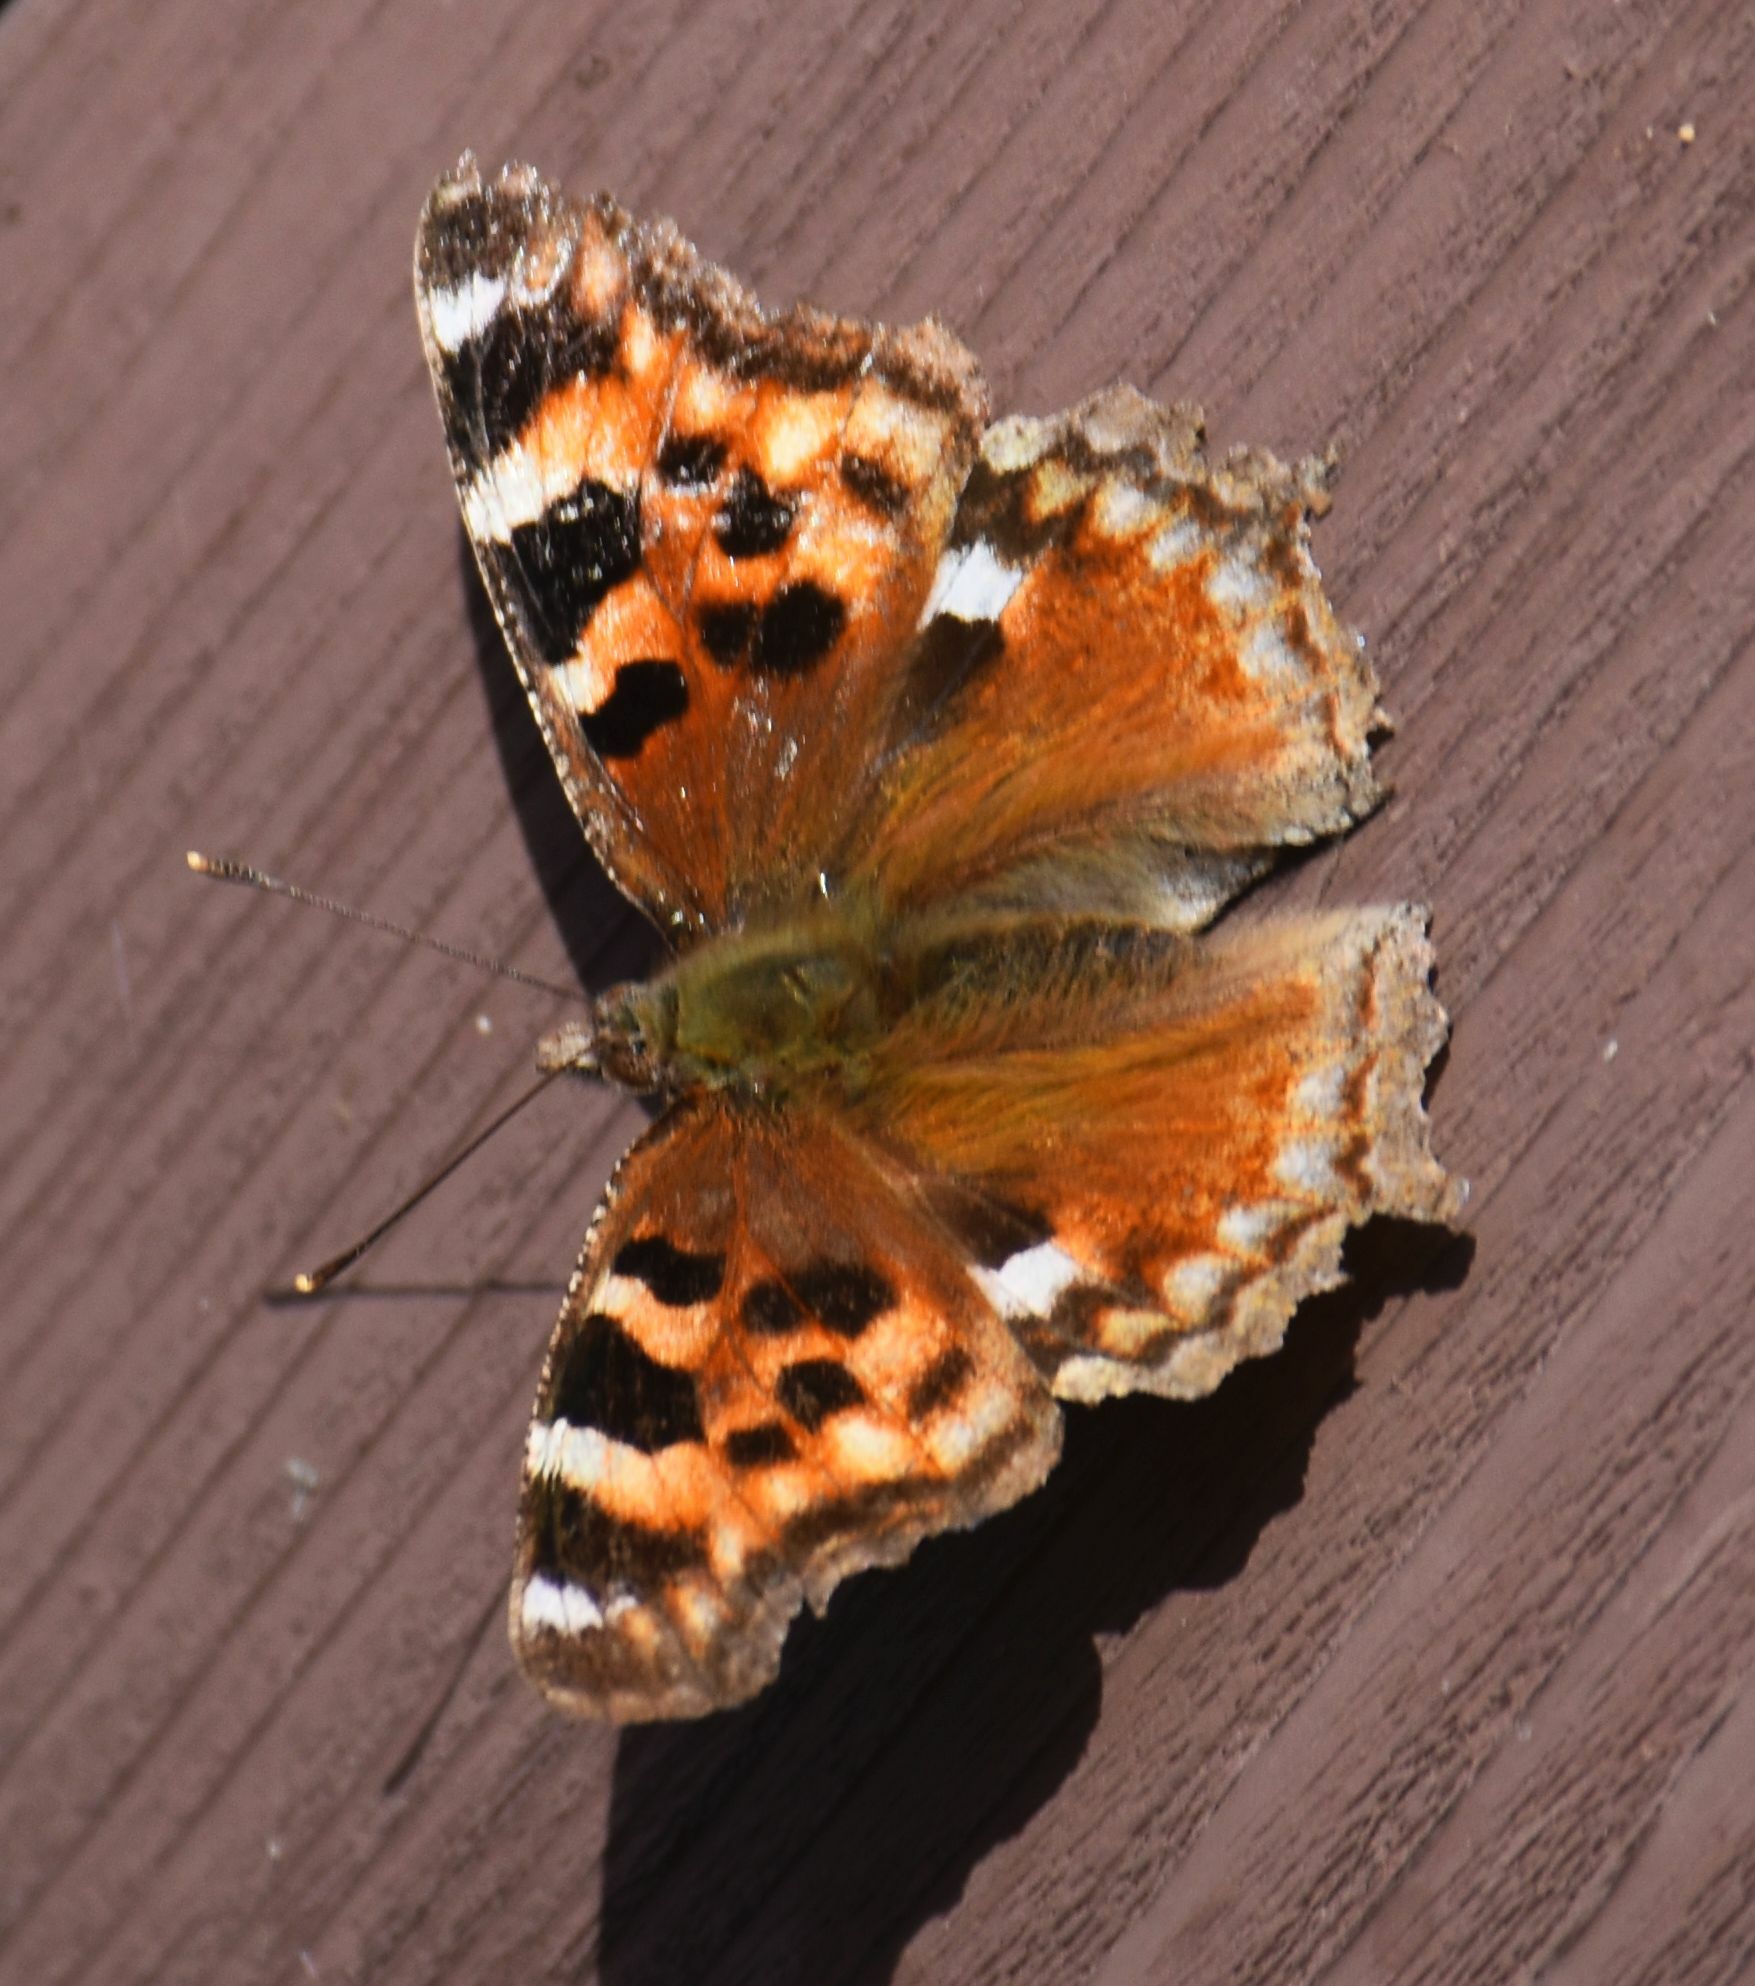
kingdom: Animalia
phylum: Arthropoda
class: Insecta
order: Lepidoptera
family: Nymphalidae
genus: Polygonia
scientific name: Polygonia vaualbum
